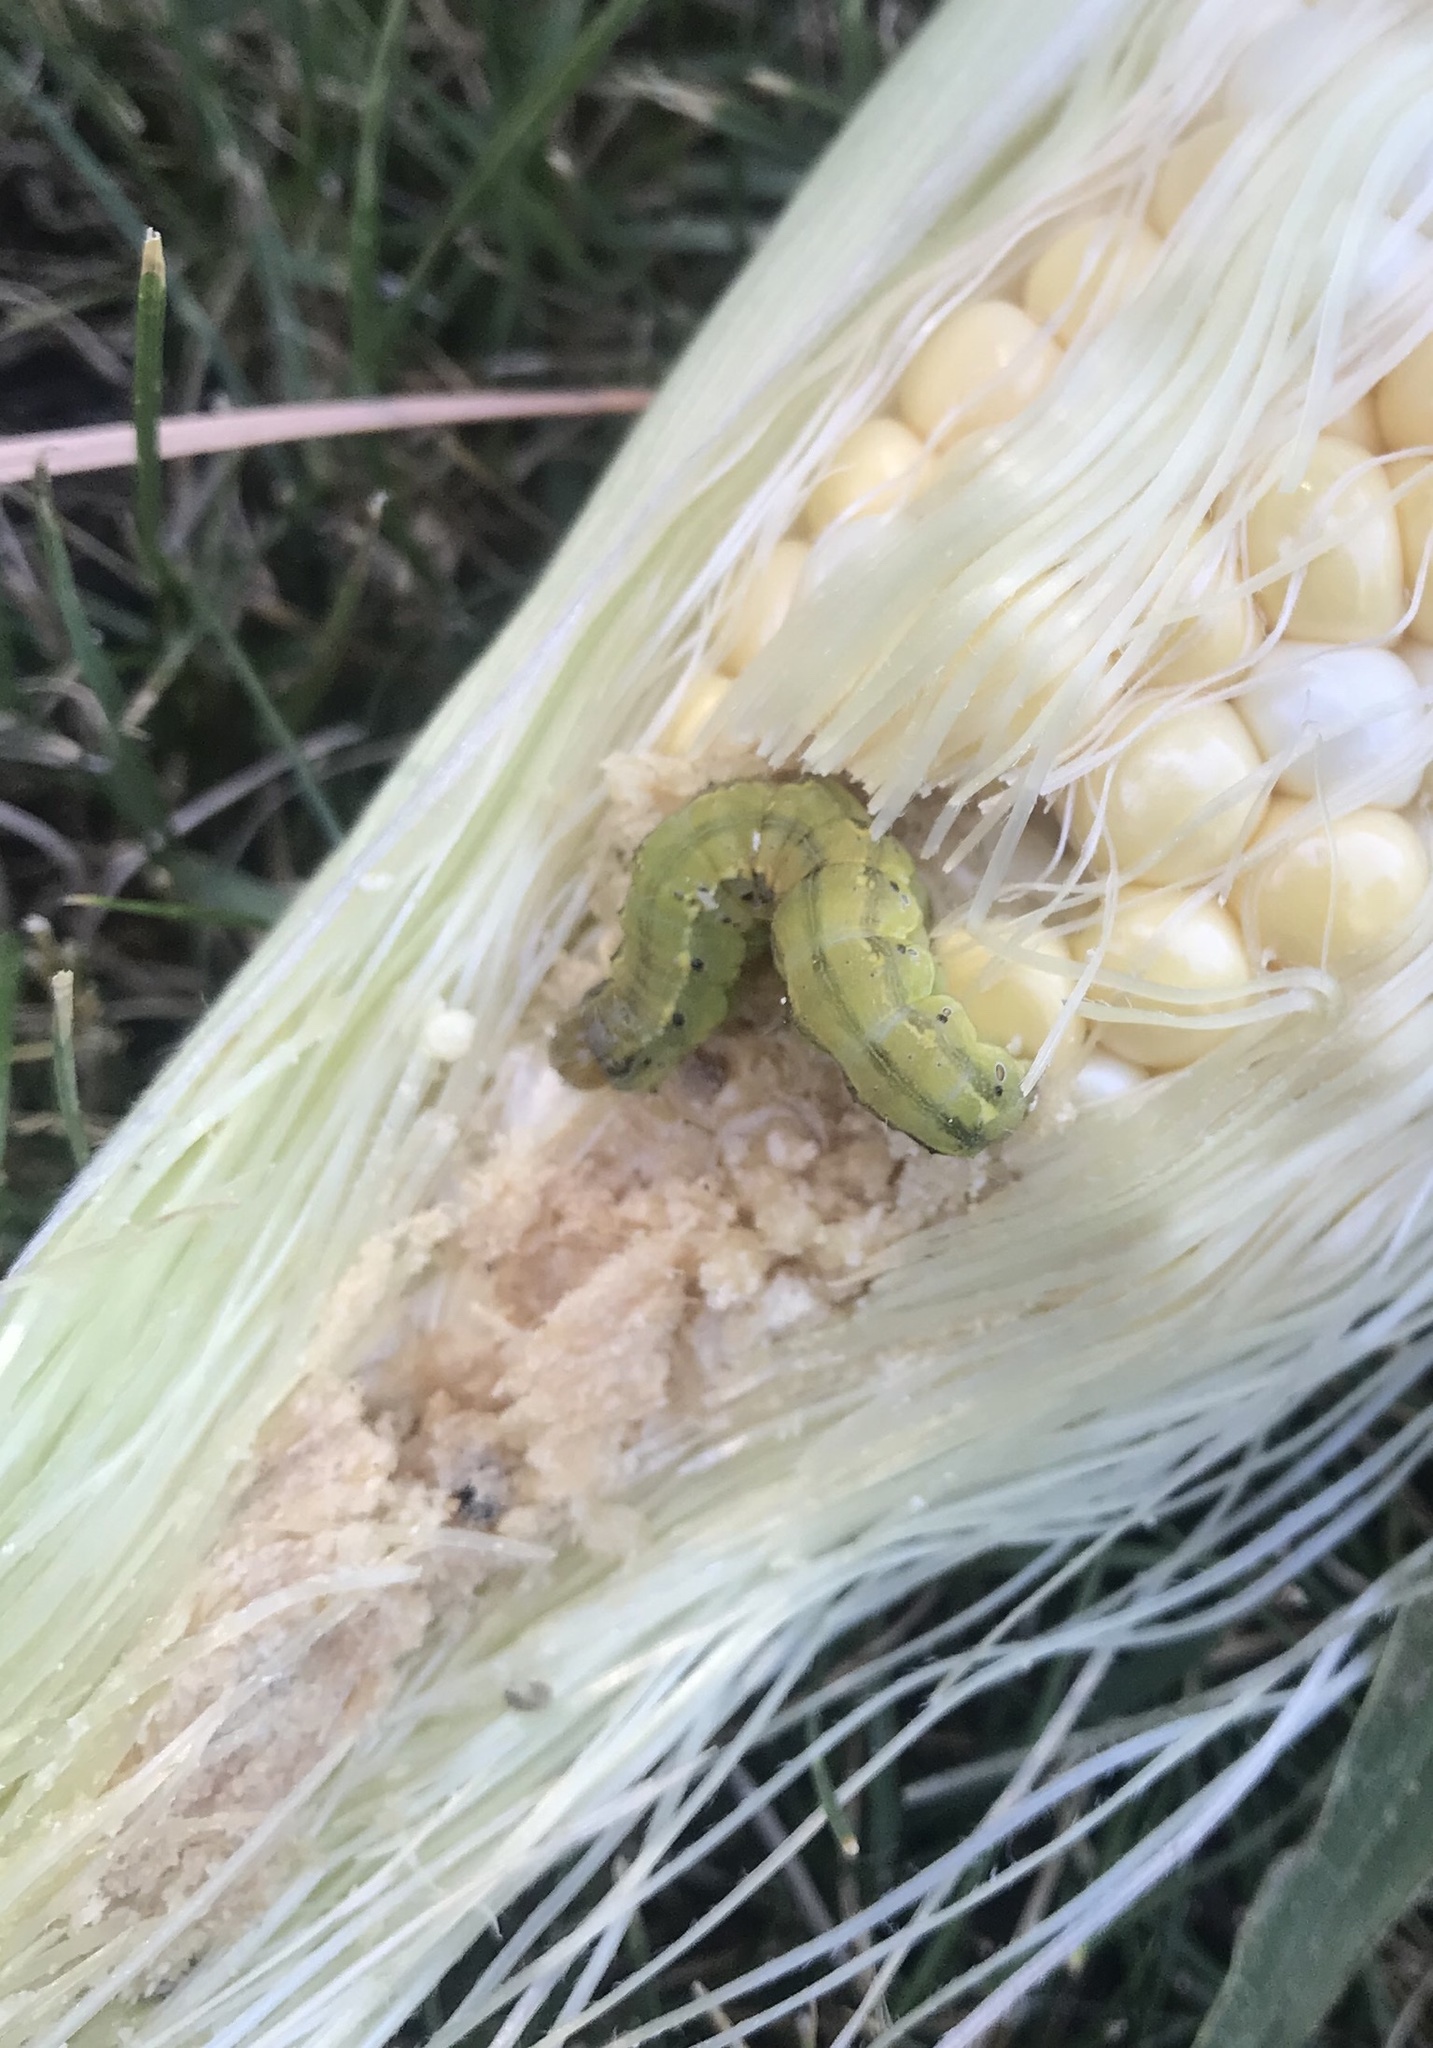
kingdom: Animalia
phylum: Arthropoda
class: Insecta
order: Lepidoptera
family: Noctuidae
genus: Helicoverpa
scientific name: Helicoverpa zea
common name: Bollworm
